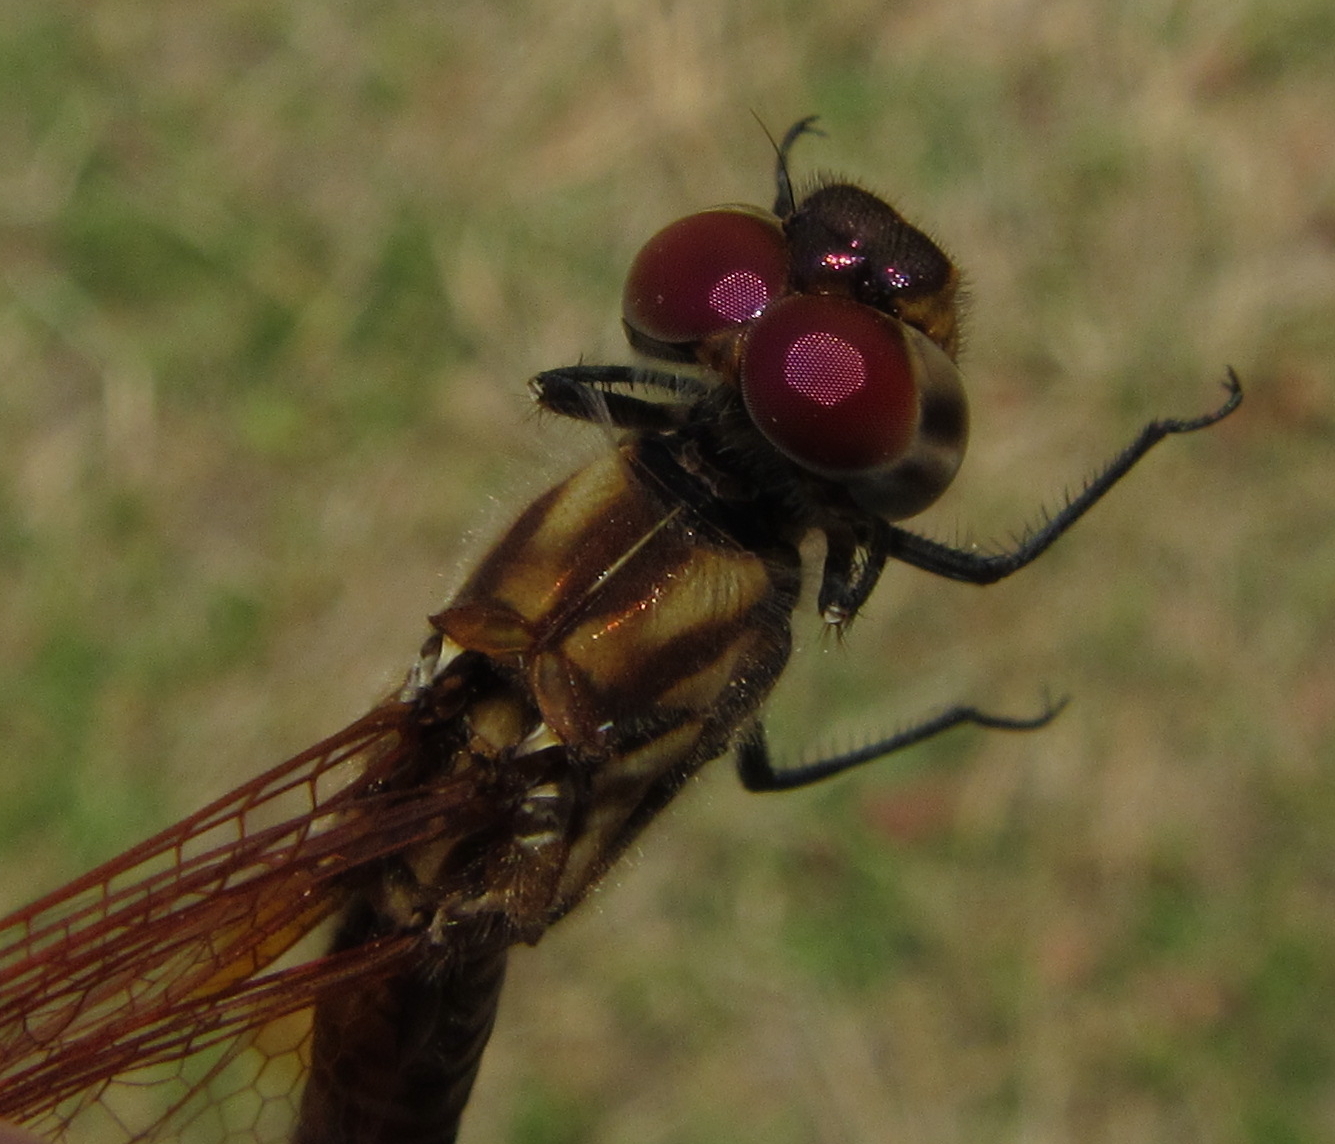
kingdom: Animalia
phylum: Arthropoda
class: Insecta
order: Odonata
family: Libellulidae
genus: Trithemis
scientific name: Trithemis annulata
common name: Violet dropwing
